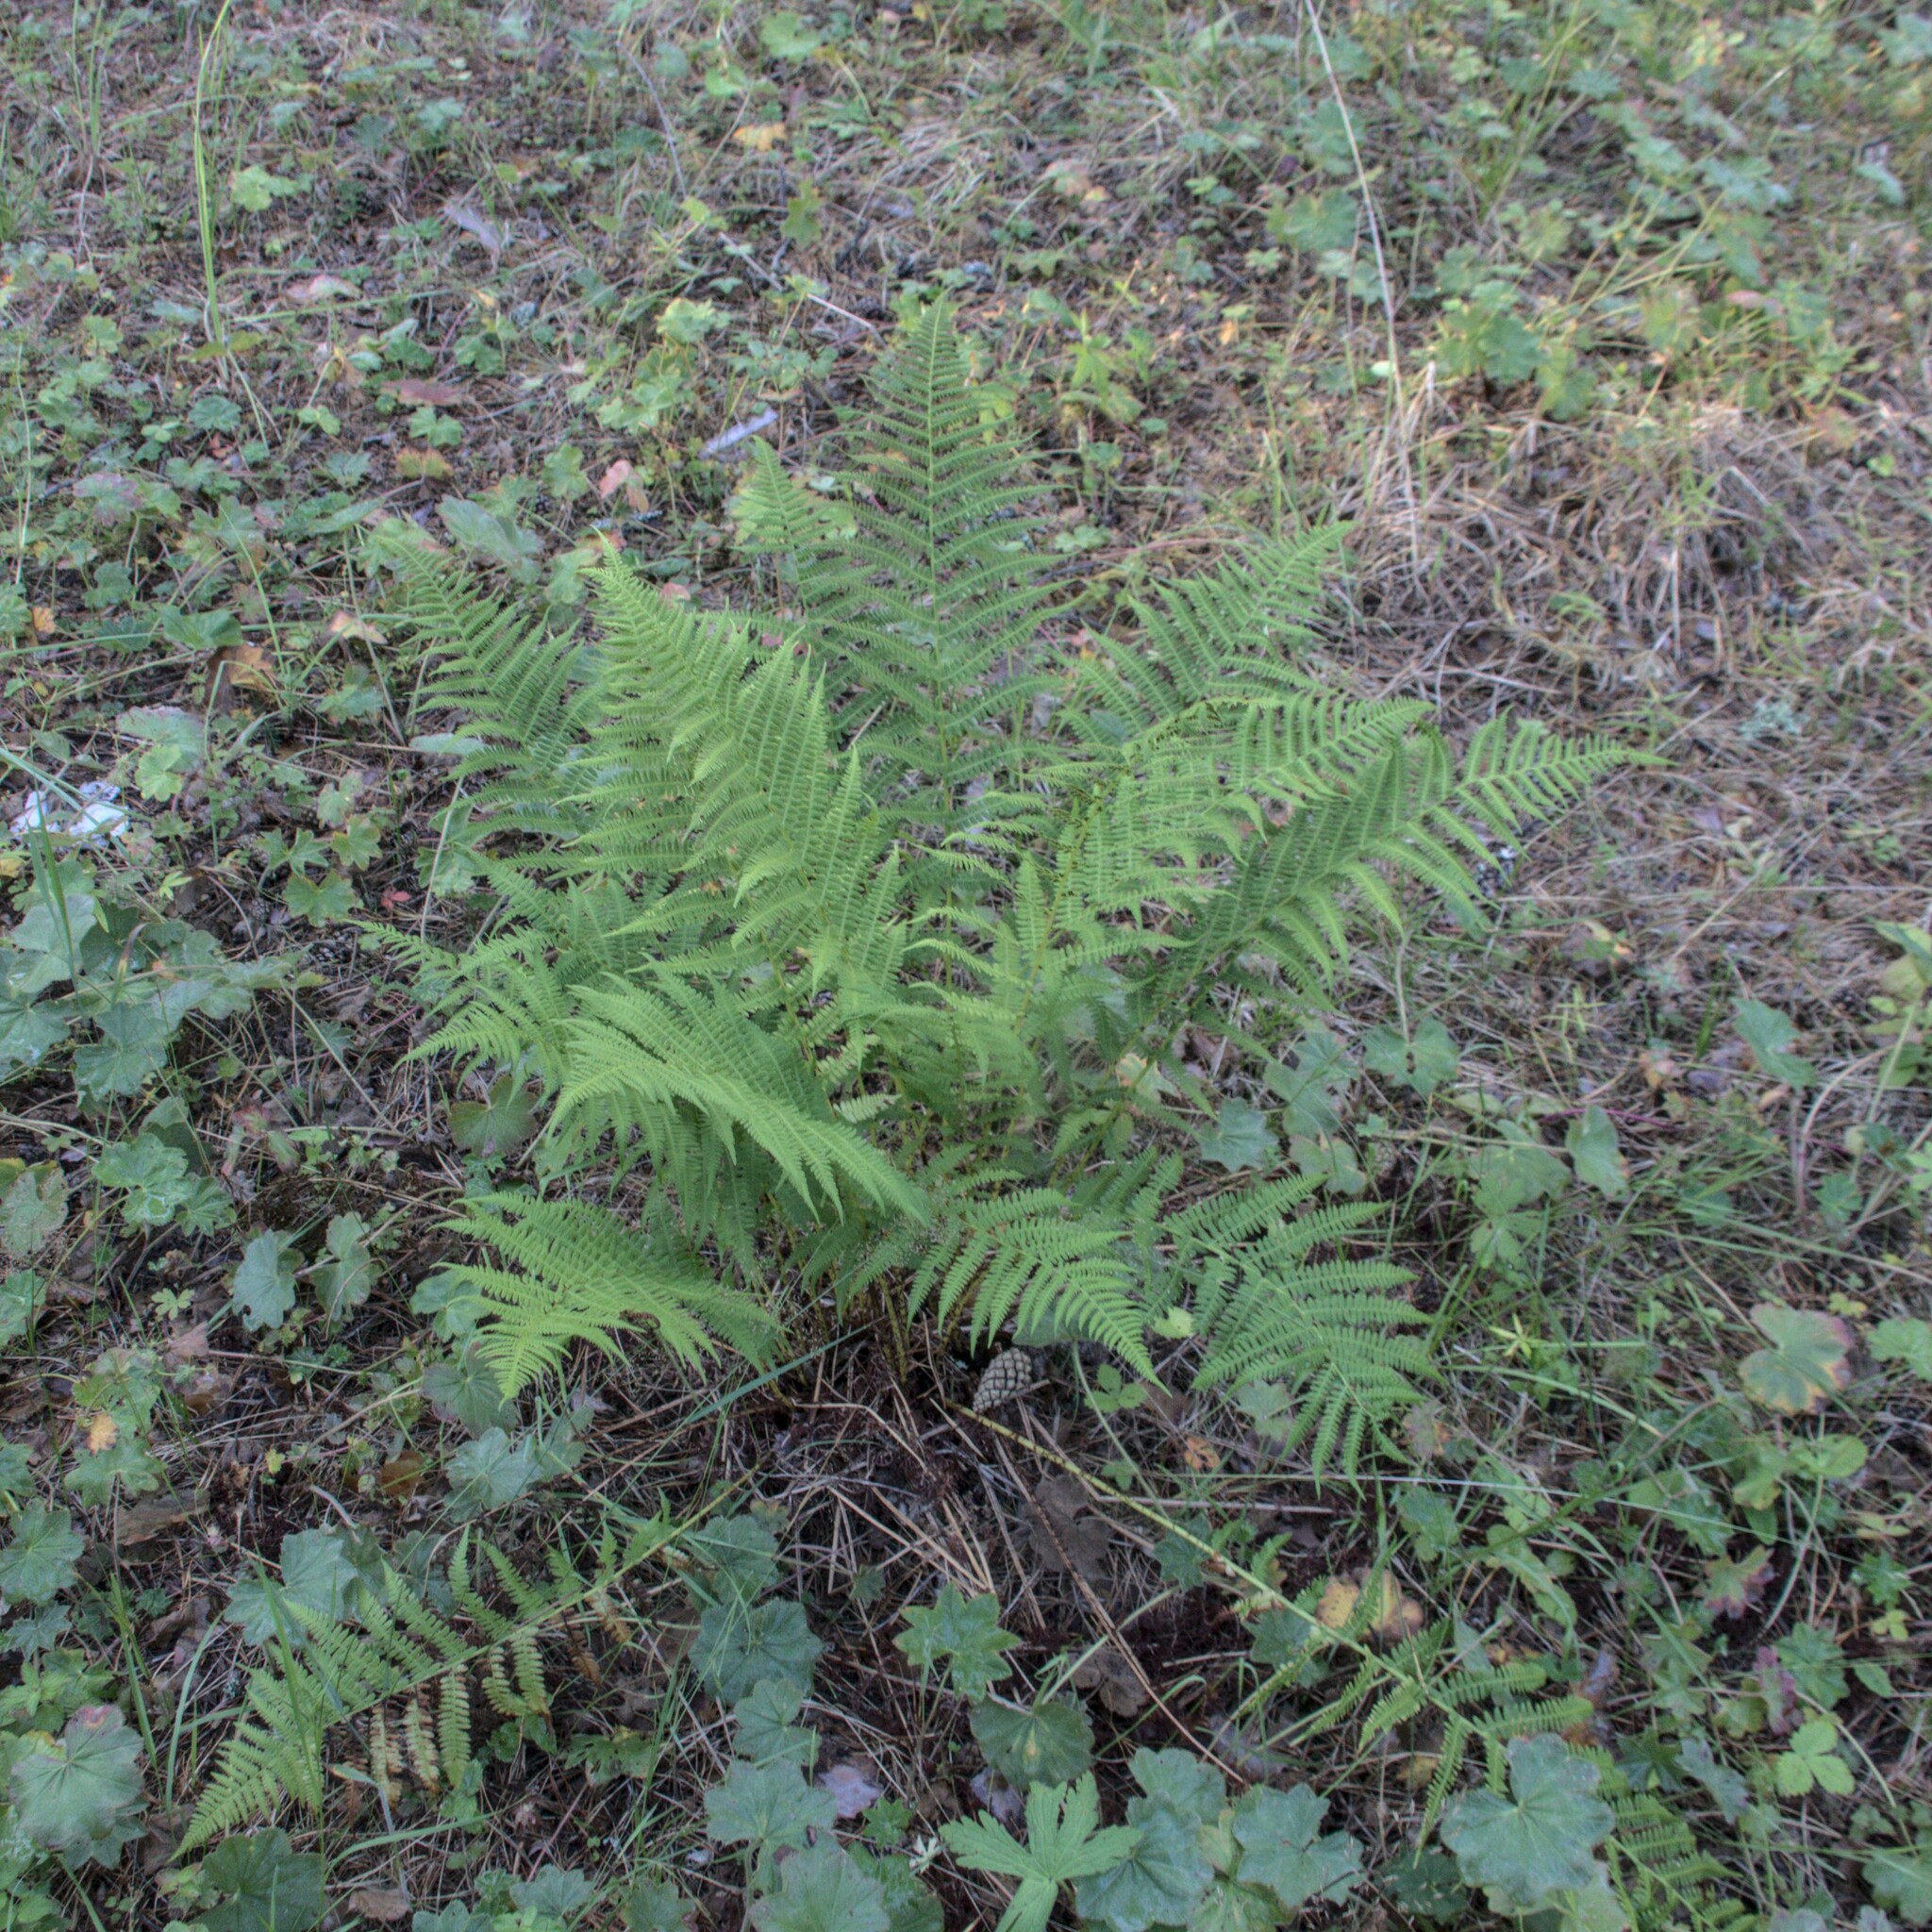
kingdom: Plantae
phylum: Tracheophyta
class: Polypodiopsida
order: Polypodiales
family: Athyriaceae
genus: Athyrium
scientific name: Athyrium filix-femina
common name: Lady fern
